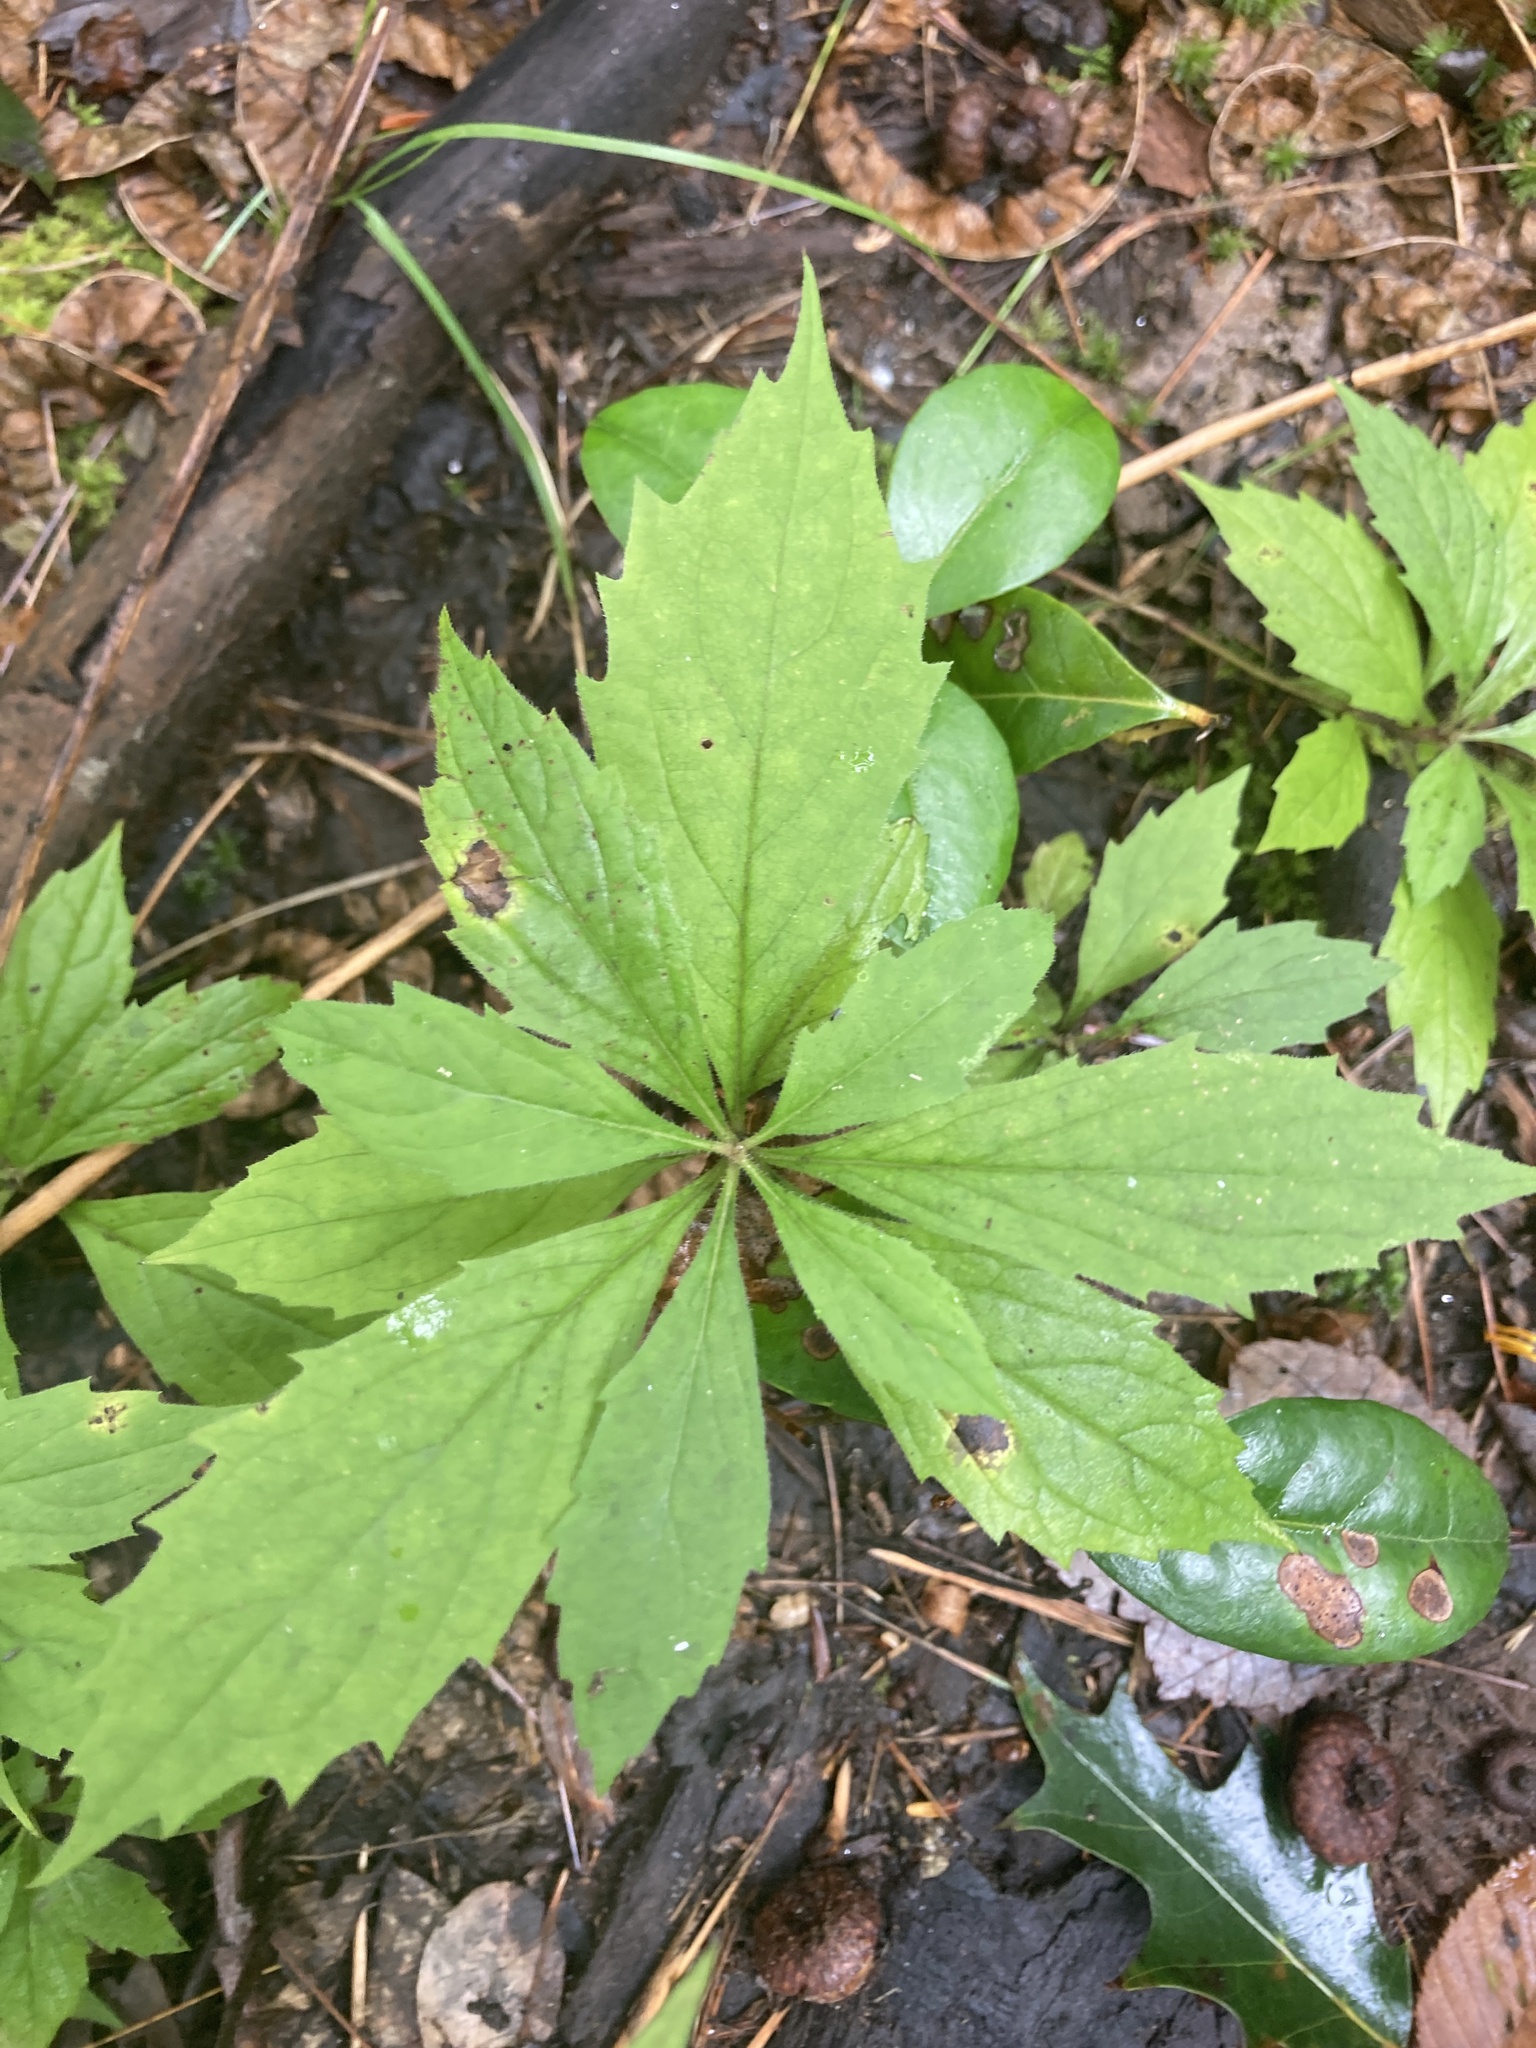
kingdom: Plantae
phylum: Tracheophyta
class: Magnoliopsida
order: Asterales
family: Asteraceae
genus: Oclemena
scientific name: Oclemena acuminata
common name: Mountain aster
